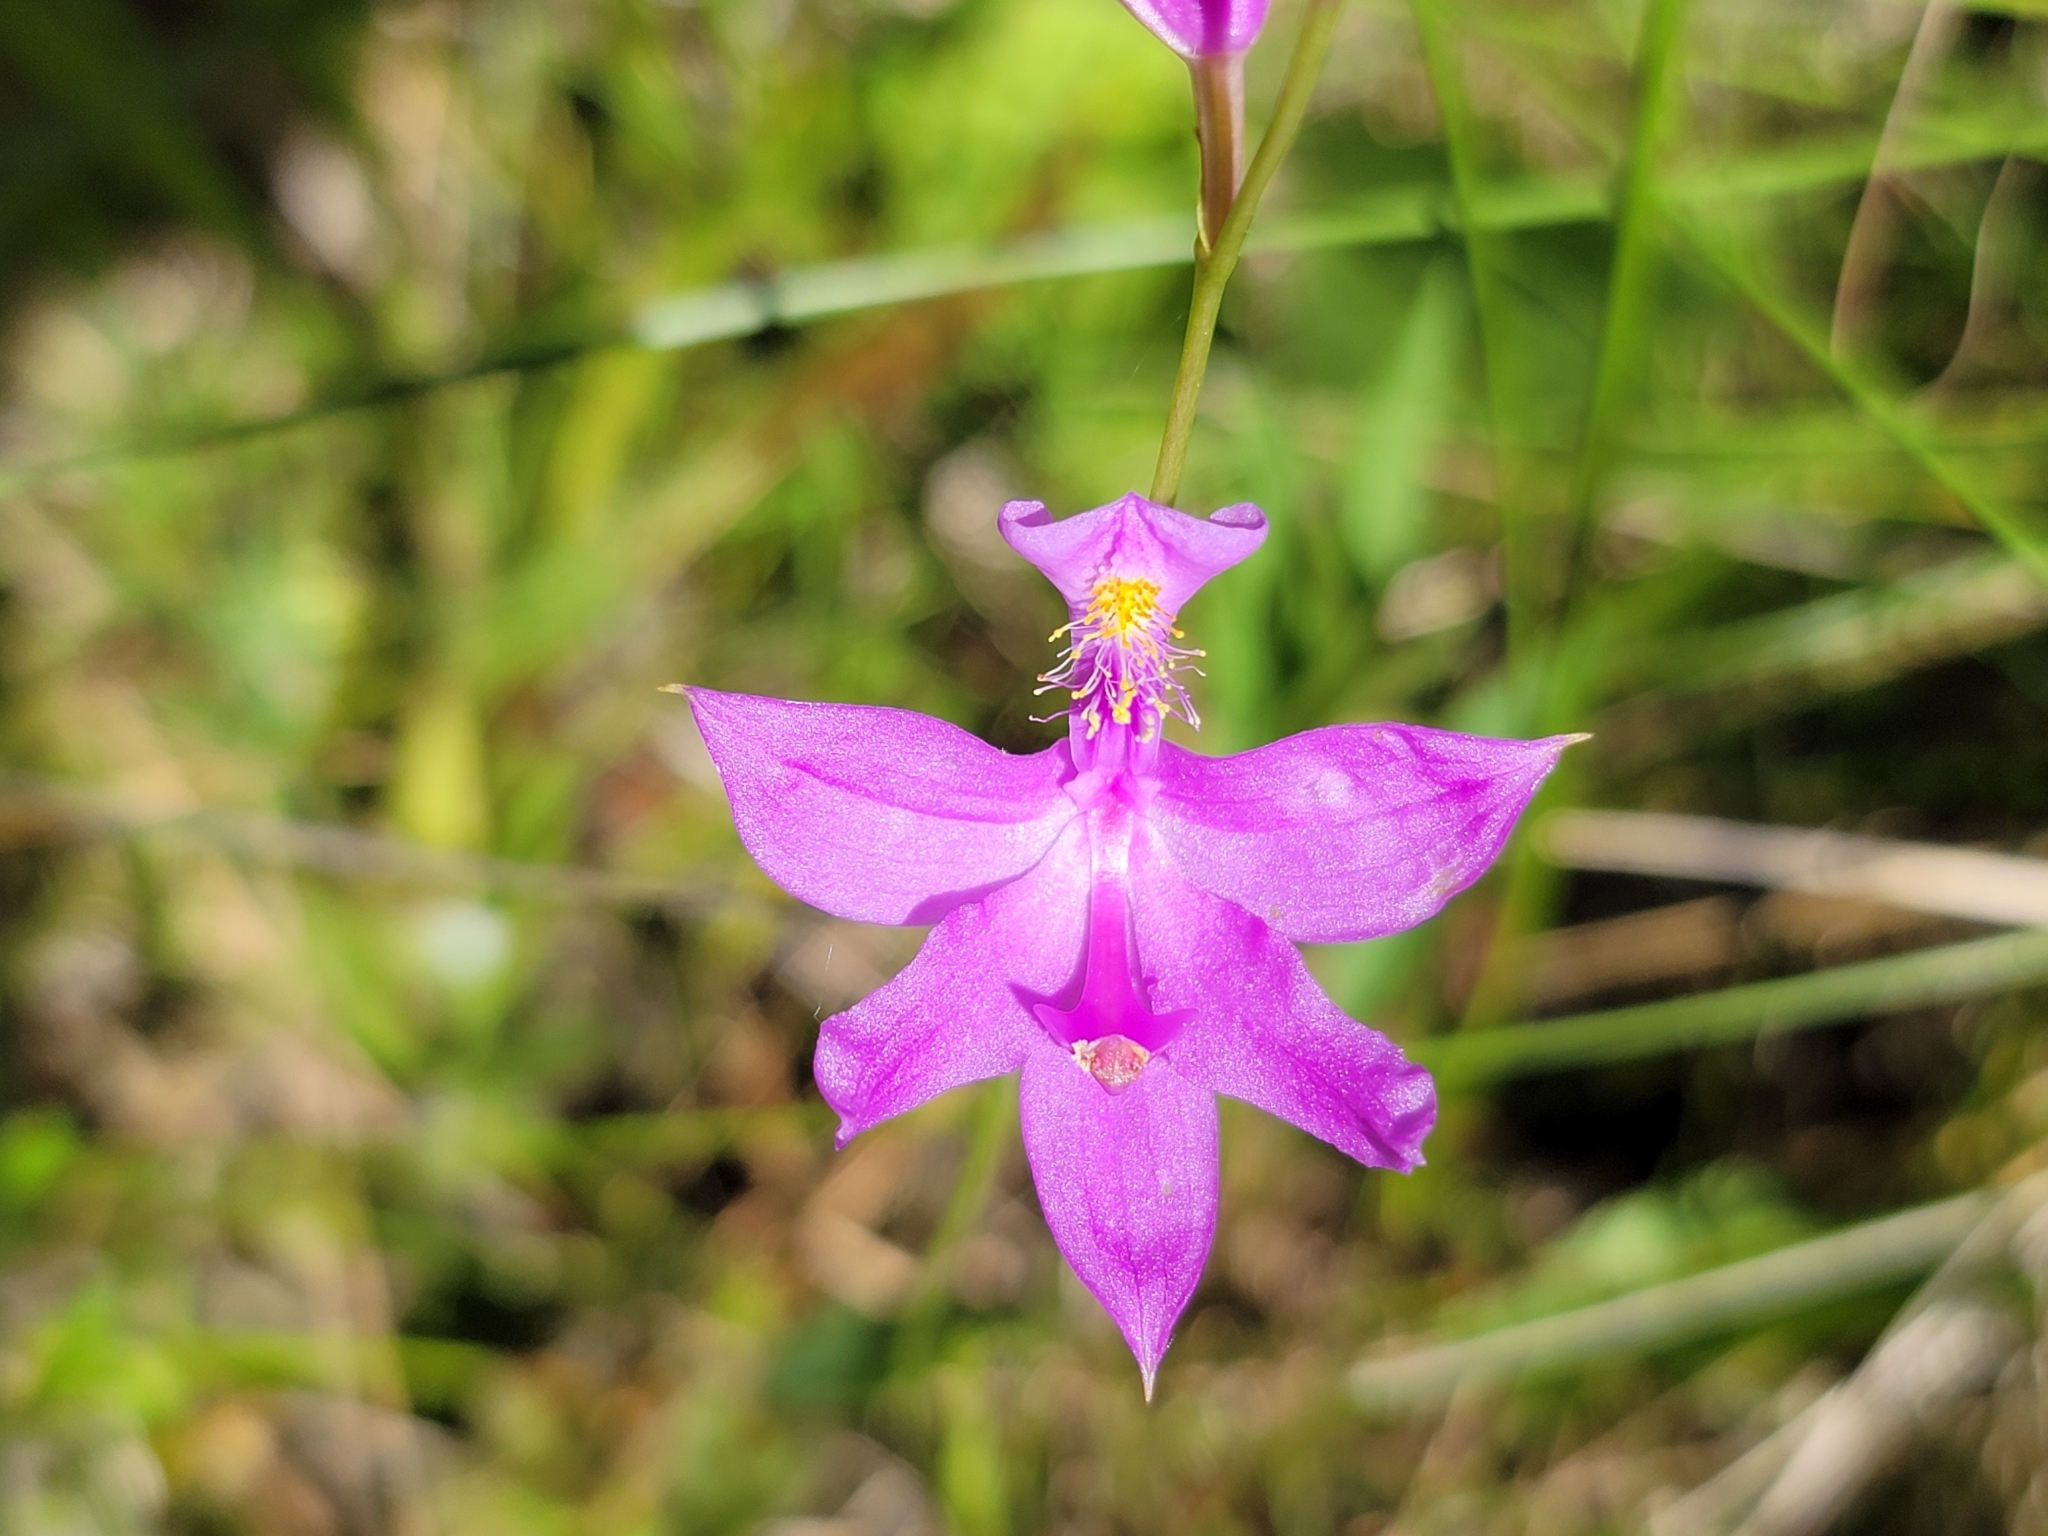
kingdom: Plantae
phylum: Tracheophyta
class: Liliopsida
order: Asparagales
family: Orchidaceae
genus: Calopogon
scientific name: Calopogon tuberosus
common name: Grass-pink
